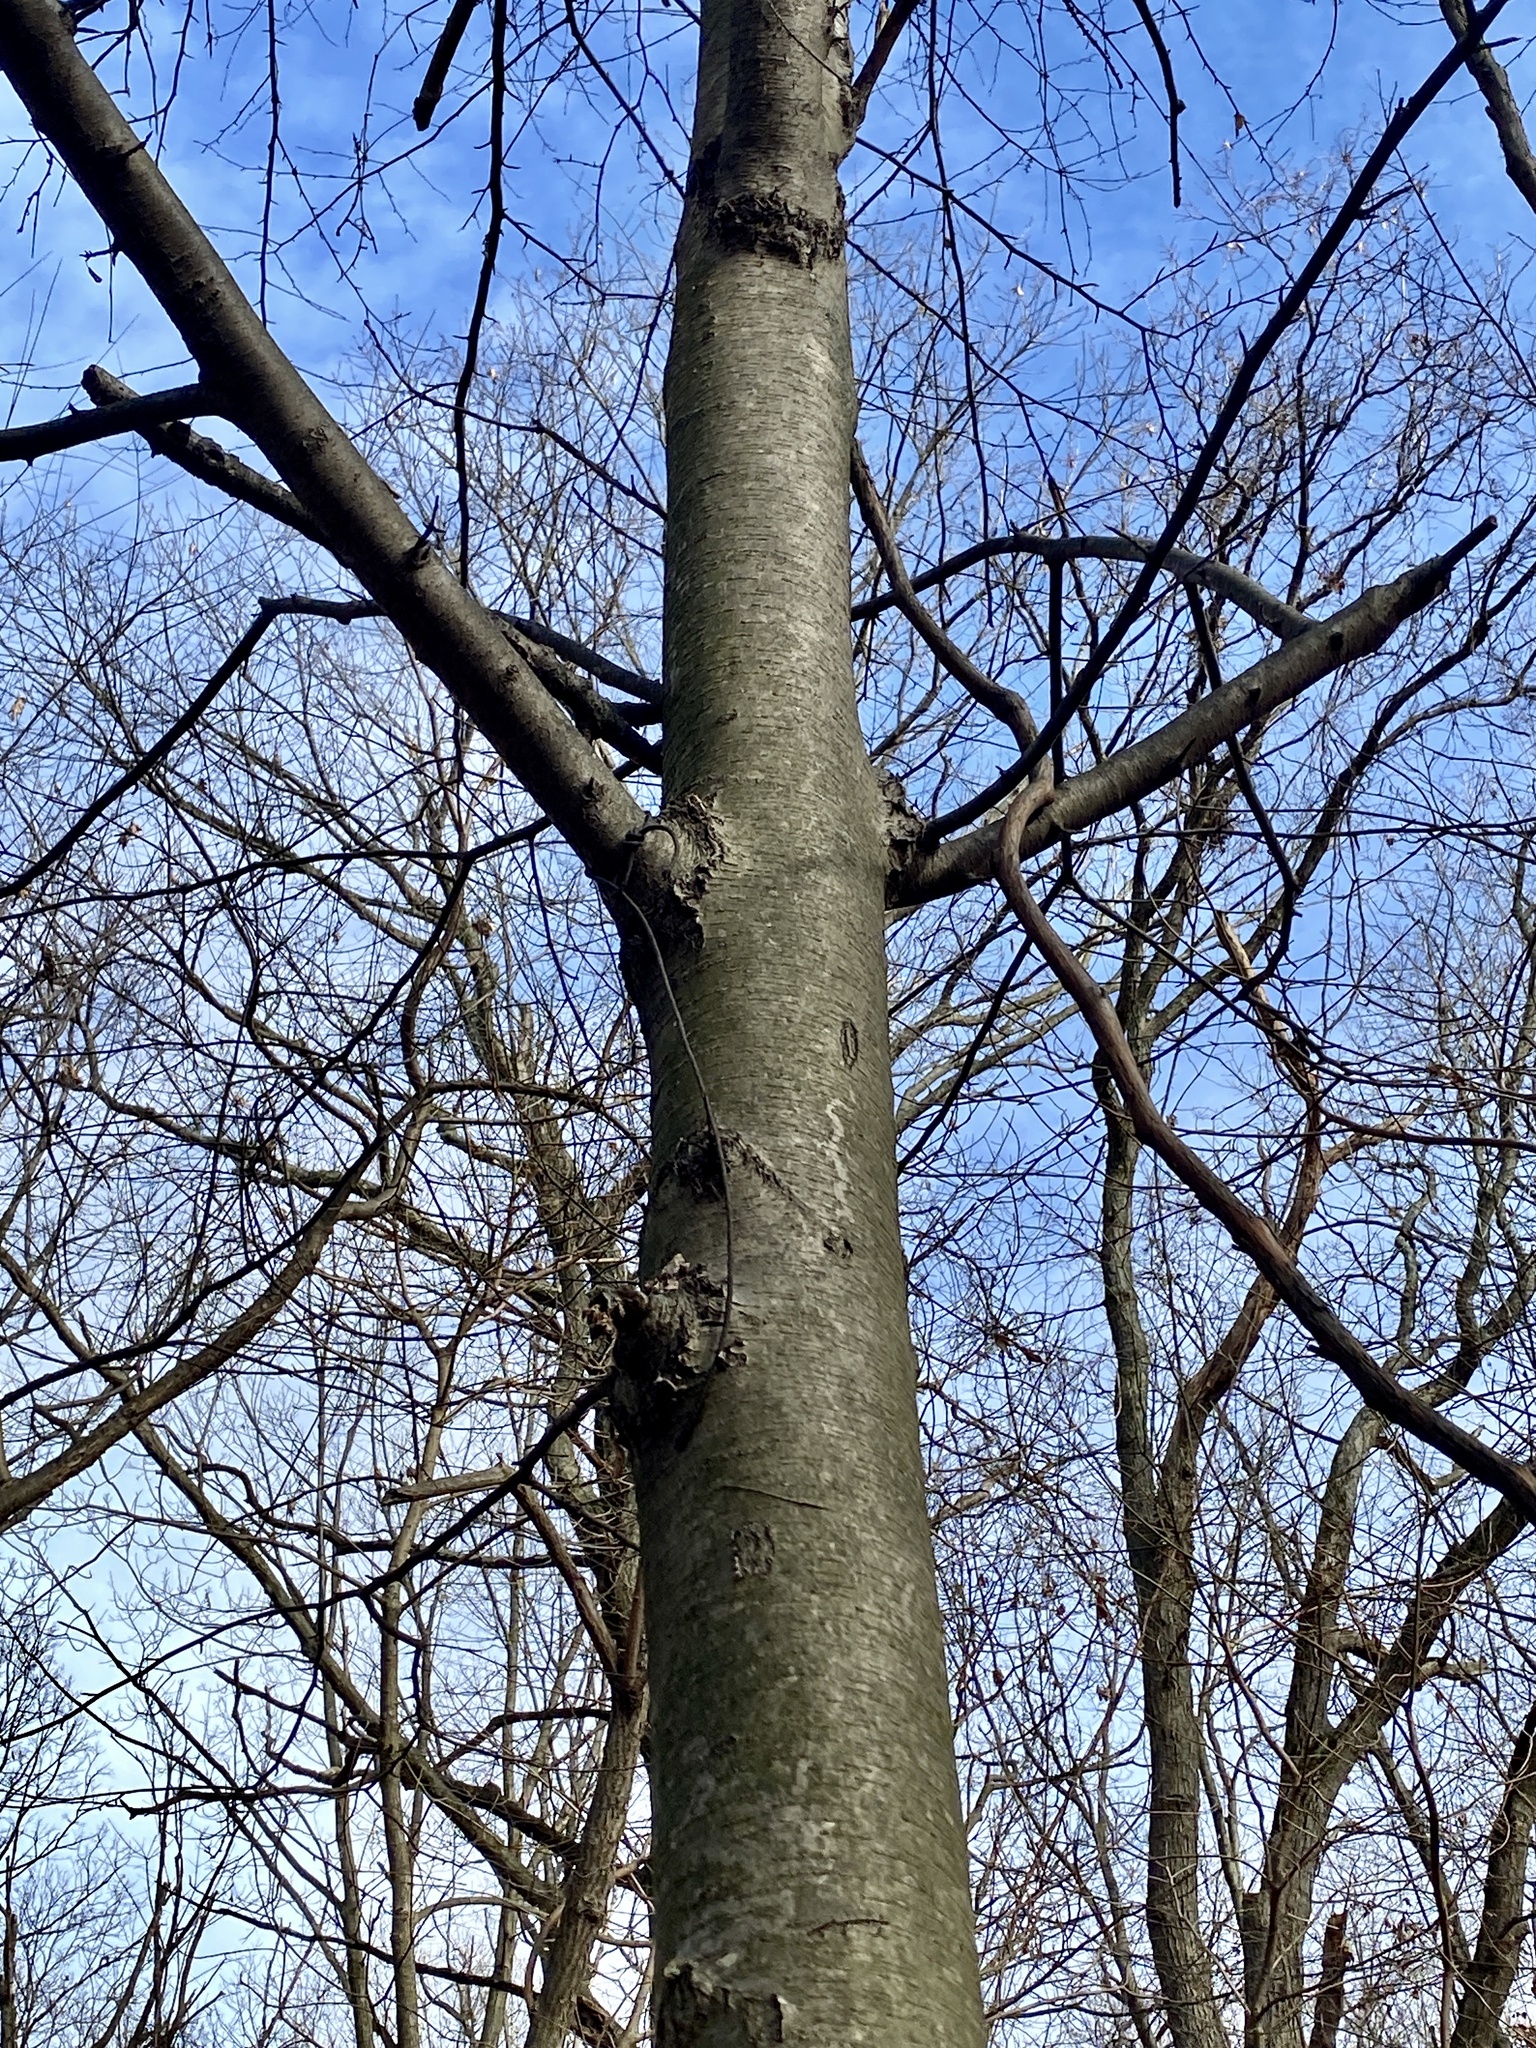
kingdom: Plantae
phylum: Tracheophyta
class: Magnoliopsida
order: Fagales
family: Betulaceae
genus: Betula
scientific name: Betula lenta
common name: Black birch
